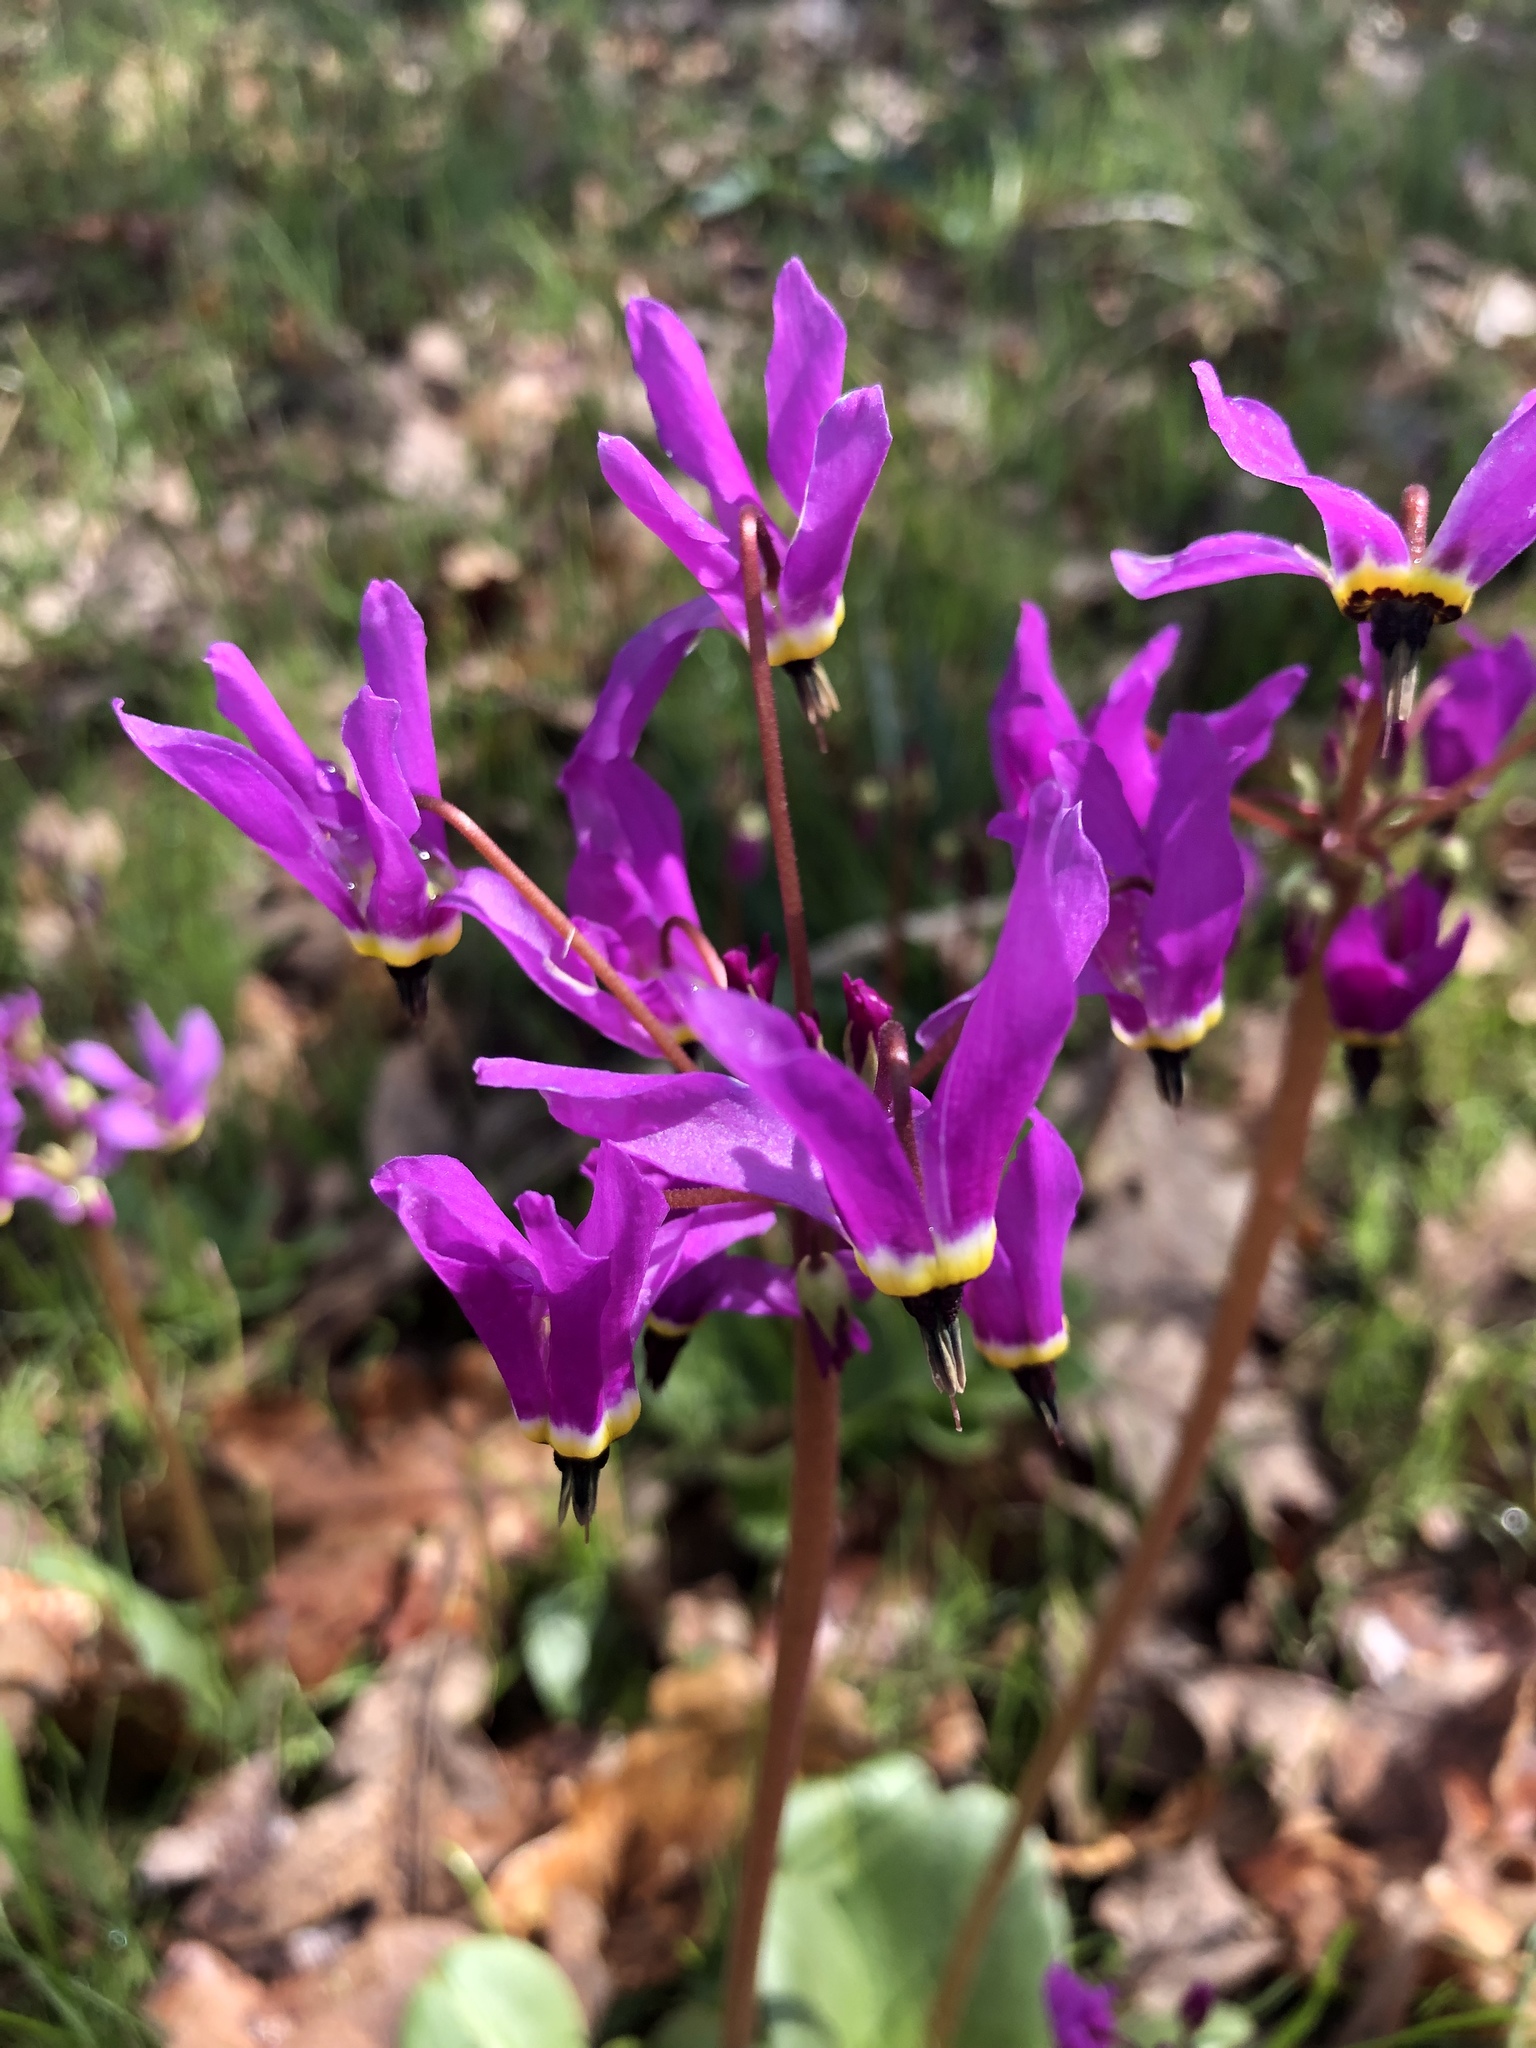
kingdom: Plantae
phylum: Tracheophyta
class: Magnoliopsida
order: Ericales
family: Primulaceae
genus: Dodecatheon
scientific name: Dodecatheon hendersonii
